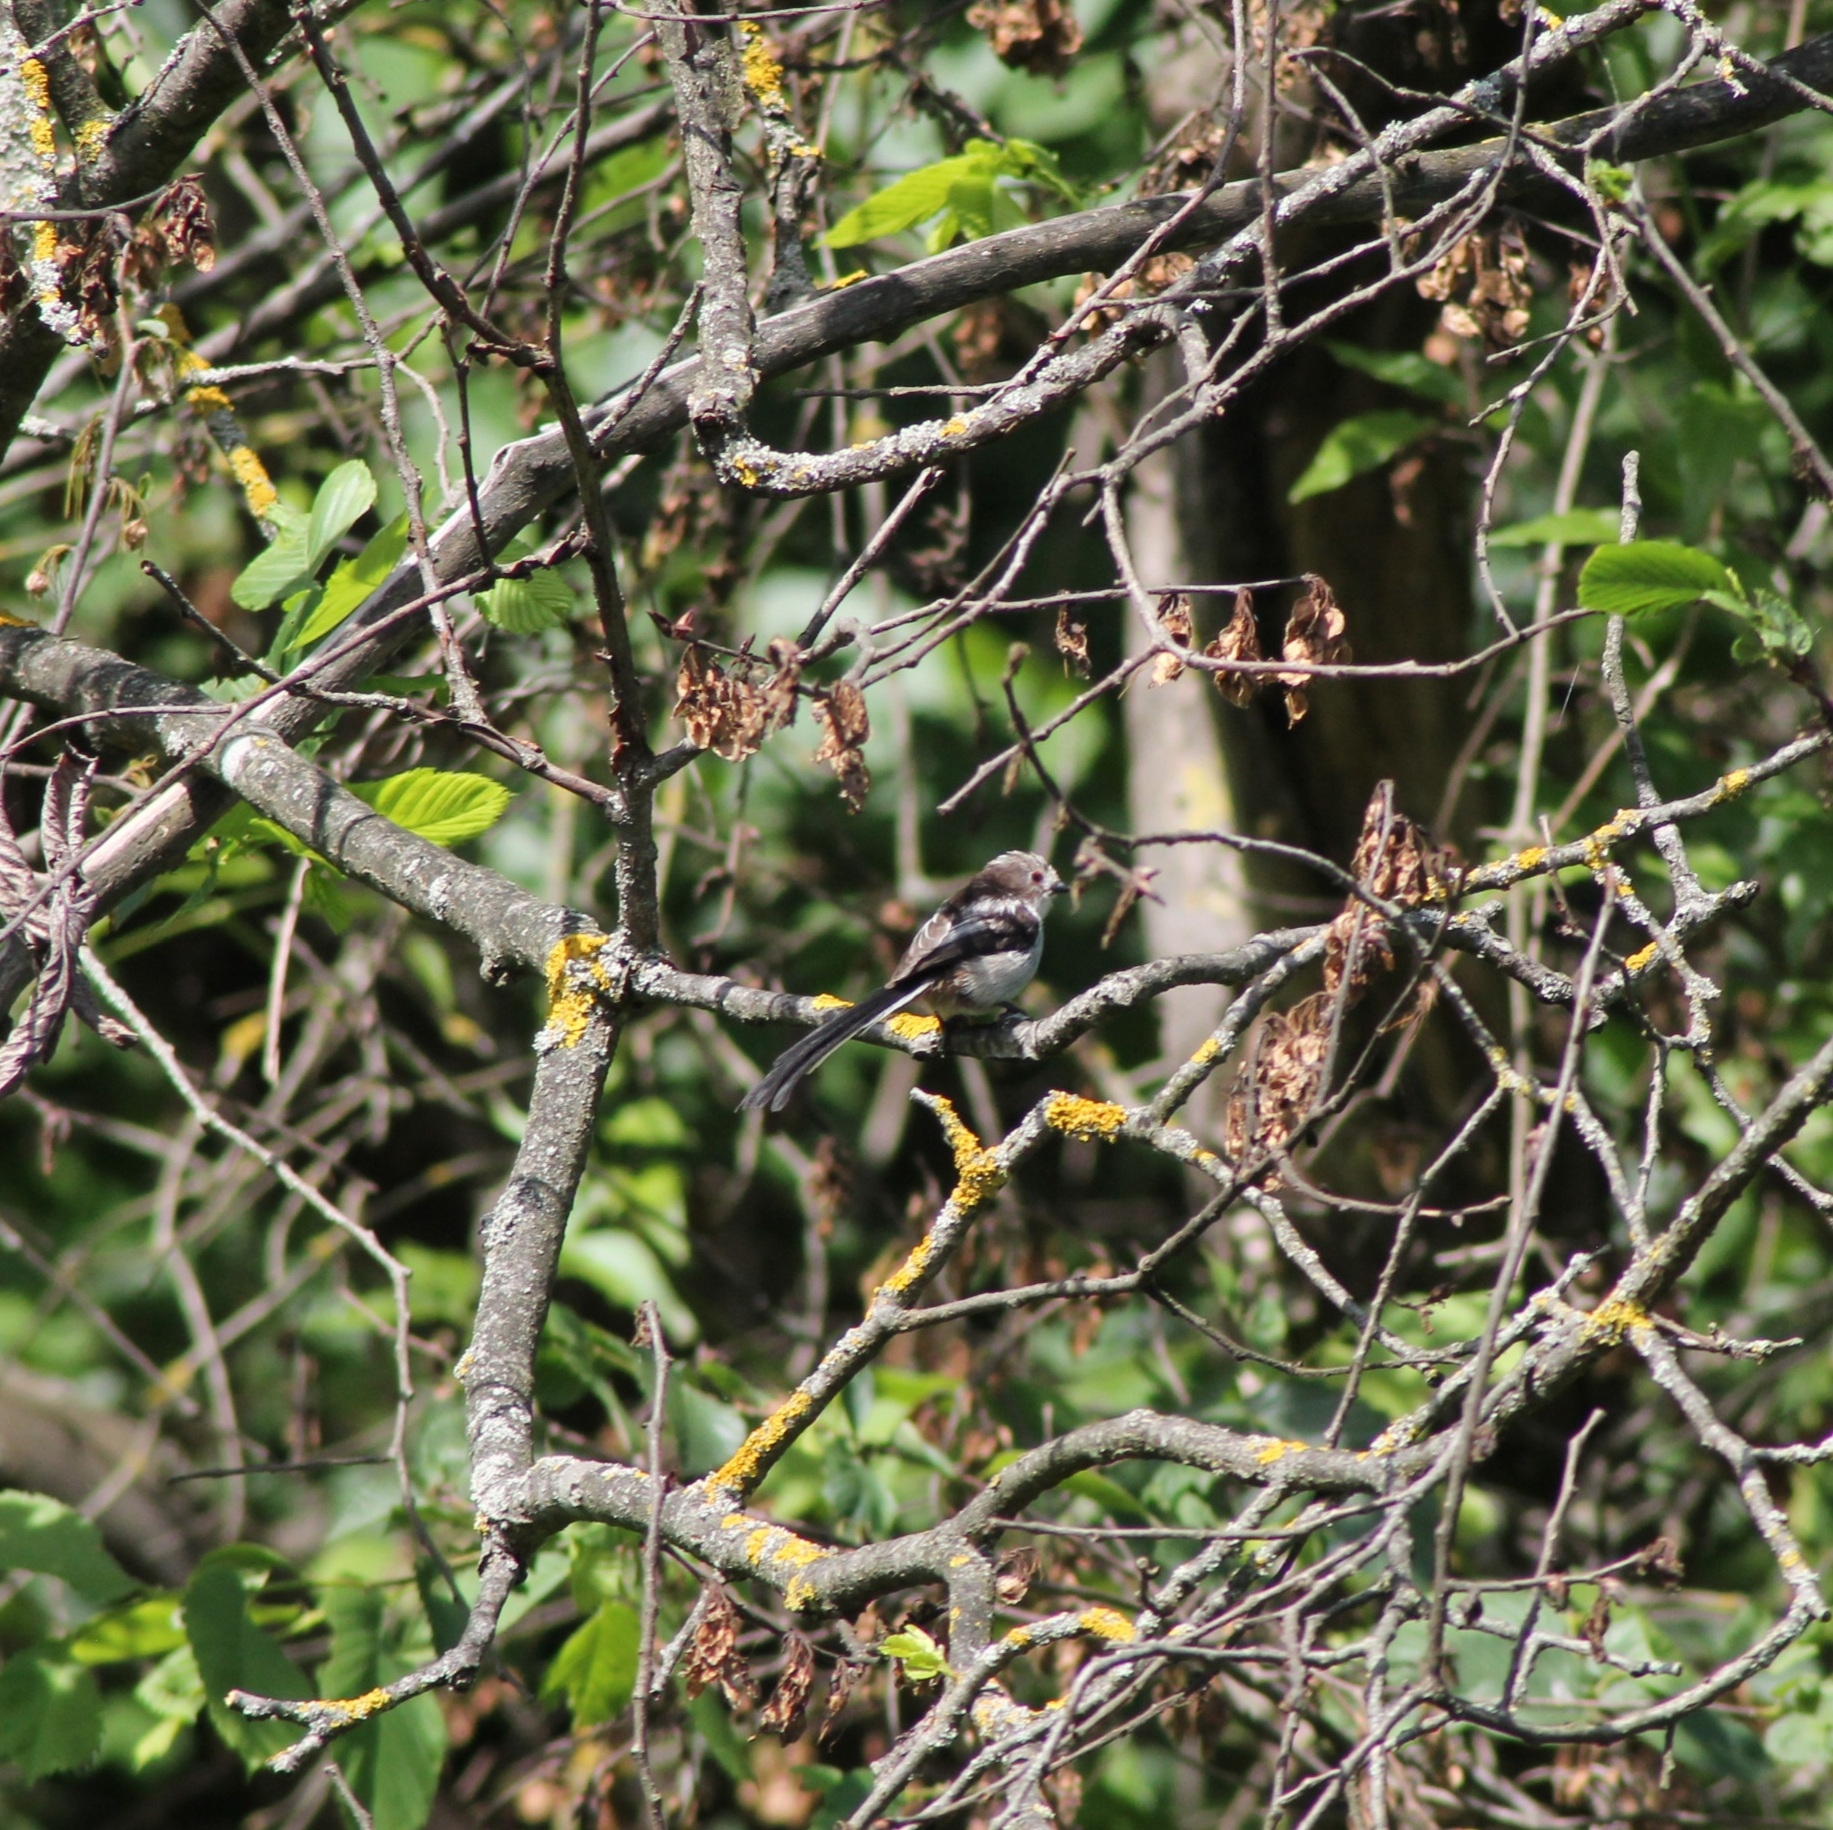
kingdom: Animalia
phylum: Chordata
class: Aves
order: Passeriformes
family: Aegithalidae
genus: Aegithalos
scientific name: Aegithalos caudatus
